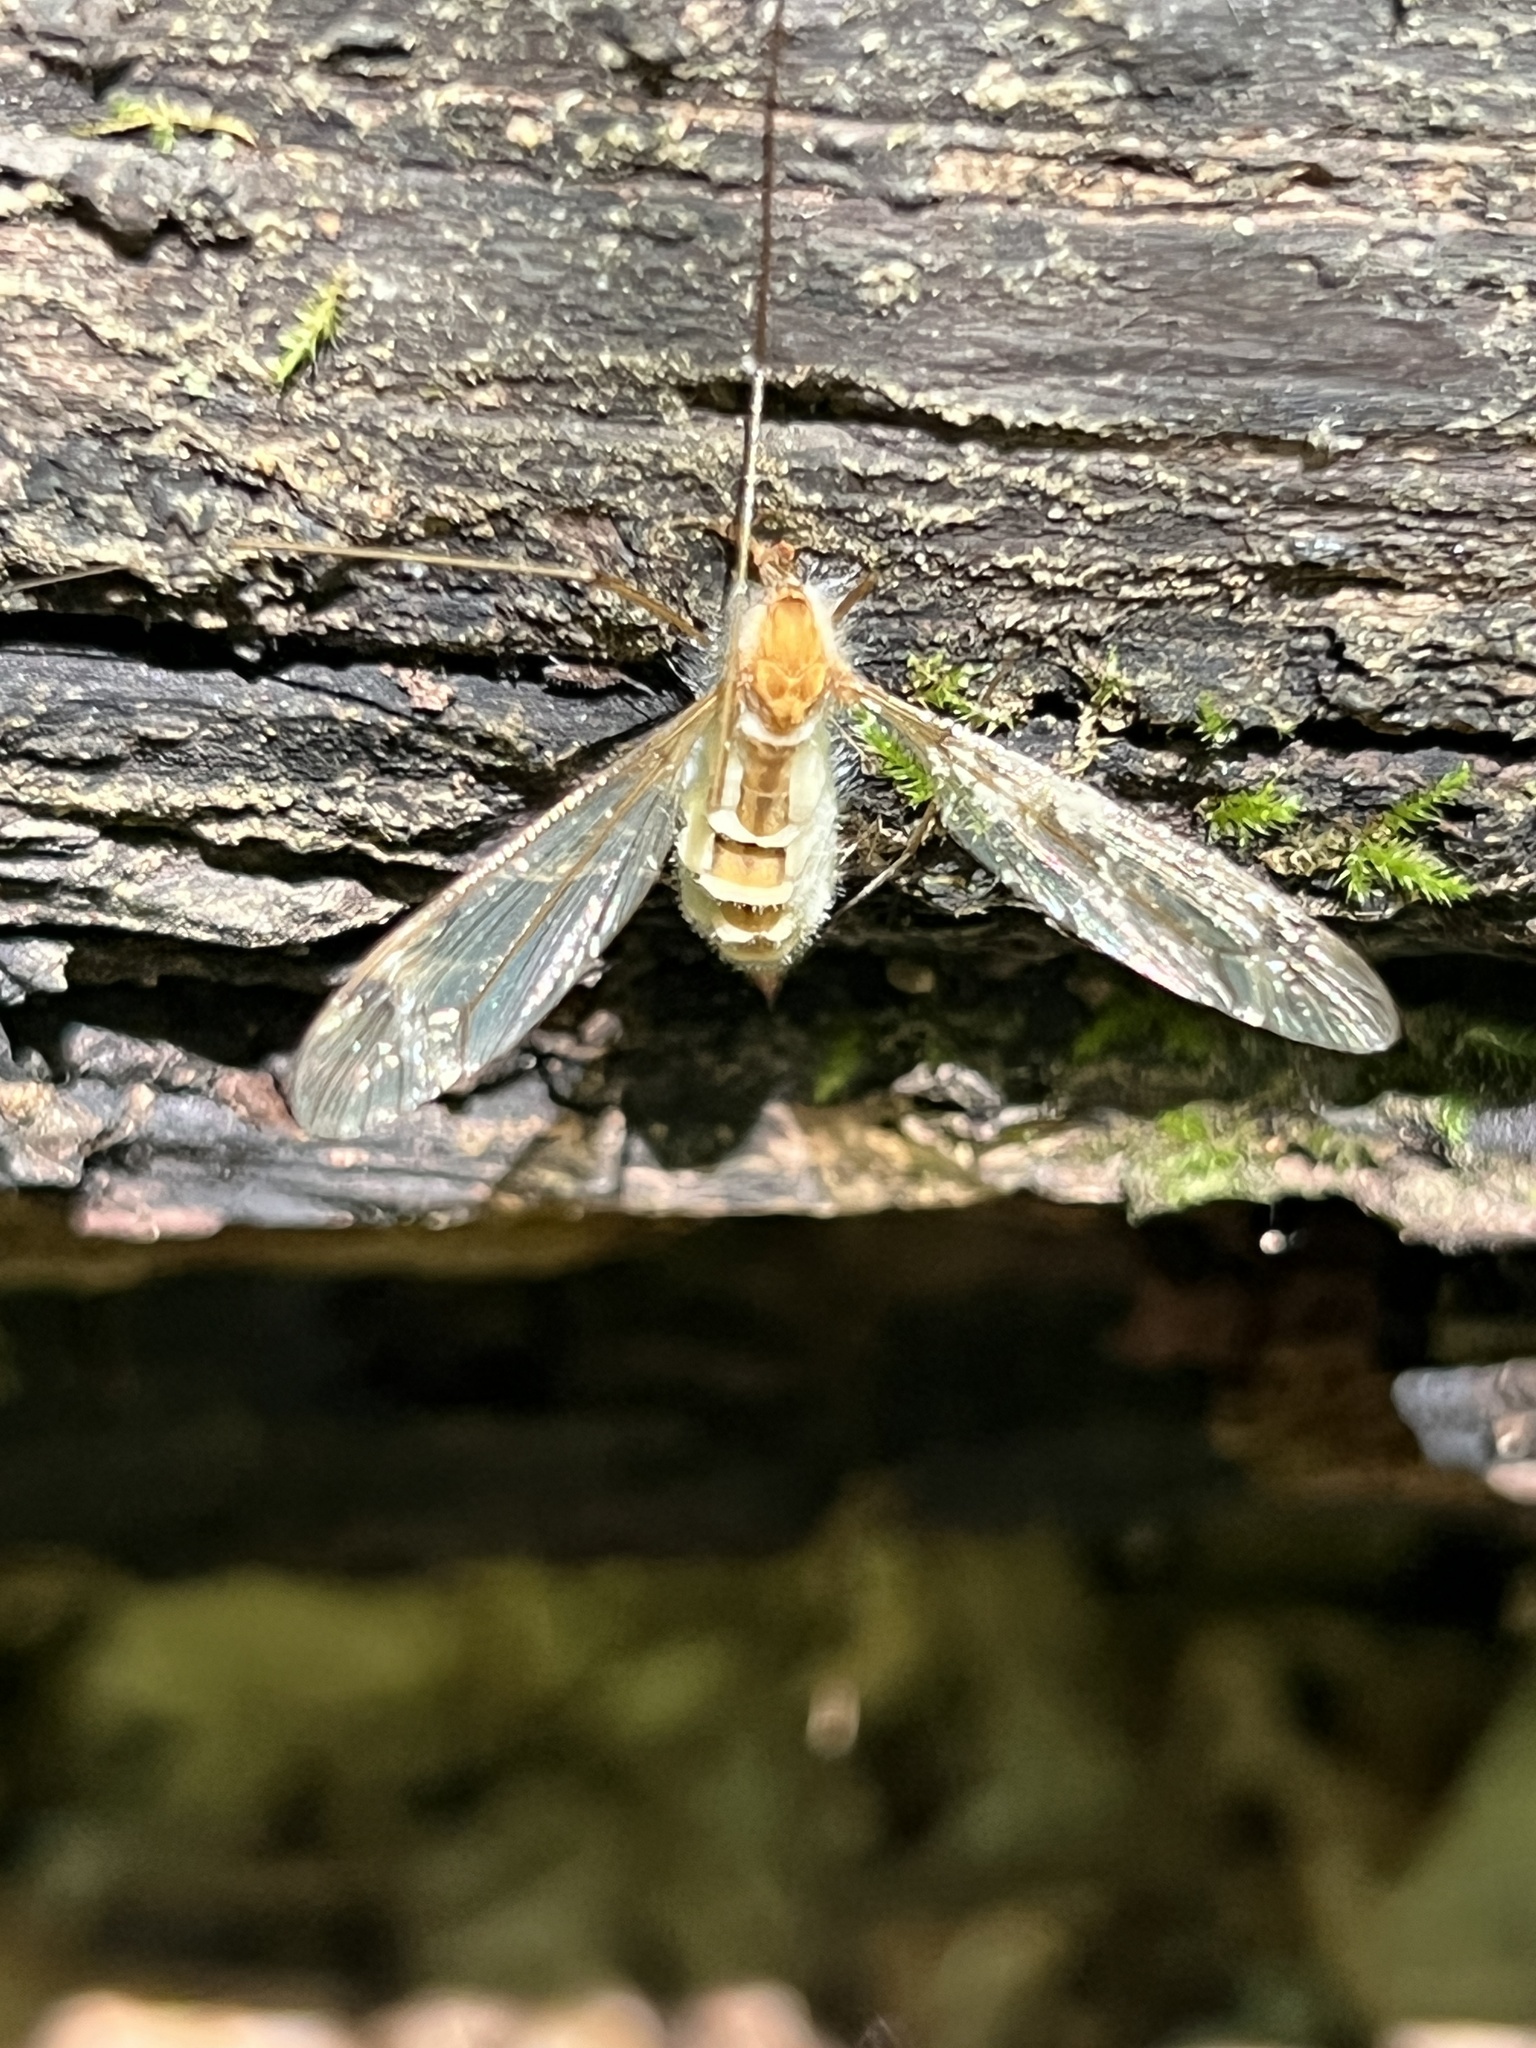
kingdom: Fungi
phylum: Entomophthoromycota
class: Entomophthoromycetes
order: Entomophthorales
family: Entomophthoraceae
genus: Erynia
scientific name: Erynia sepulchralis
